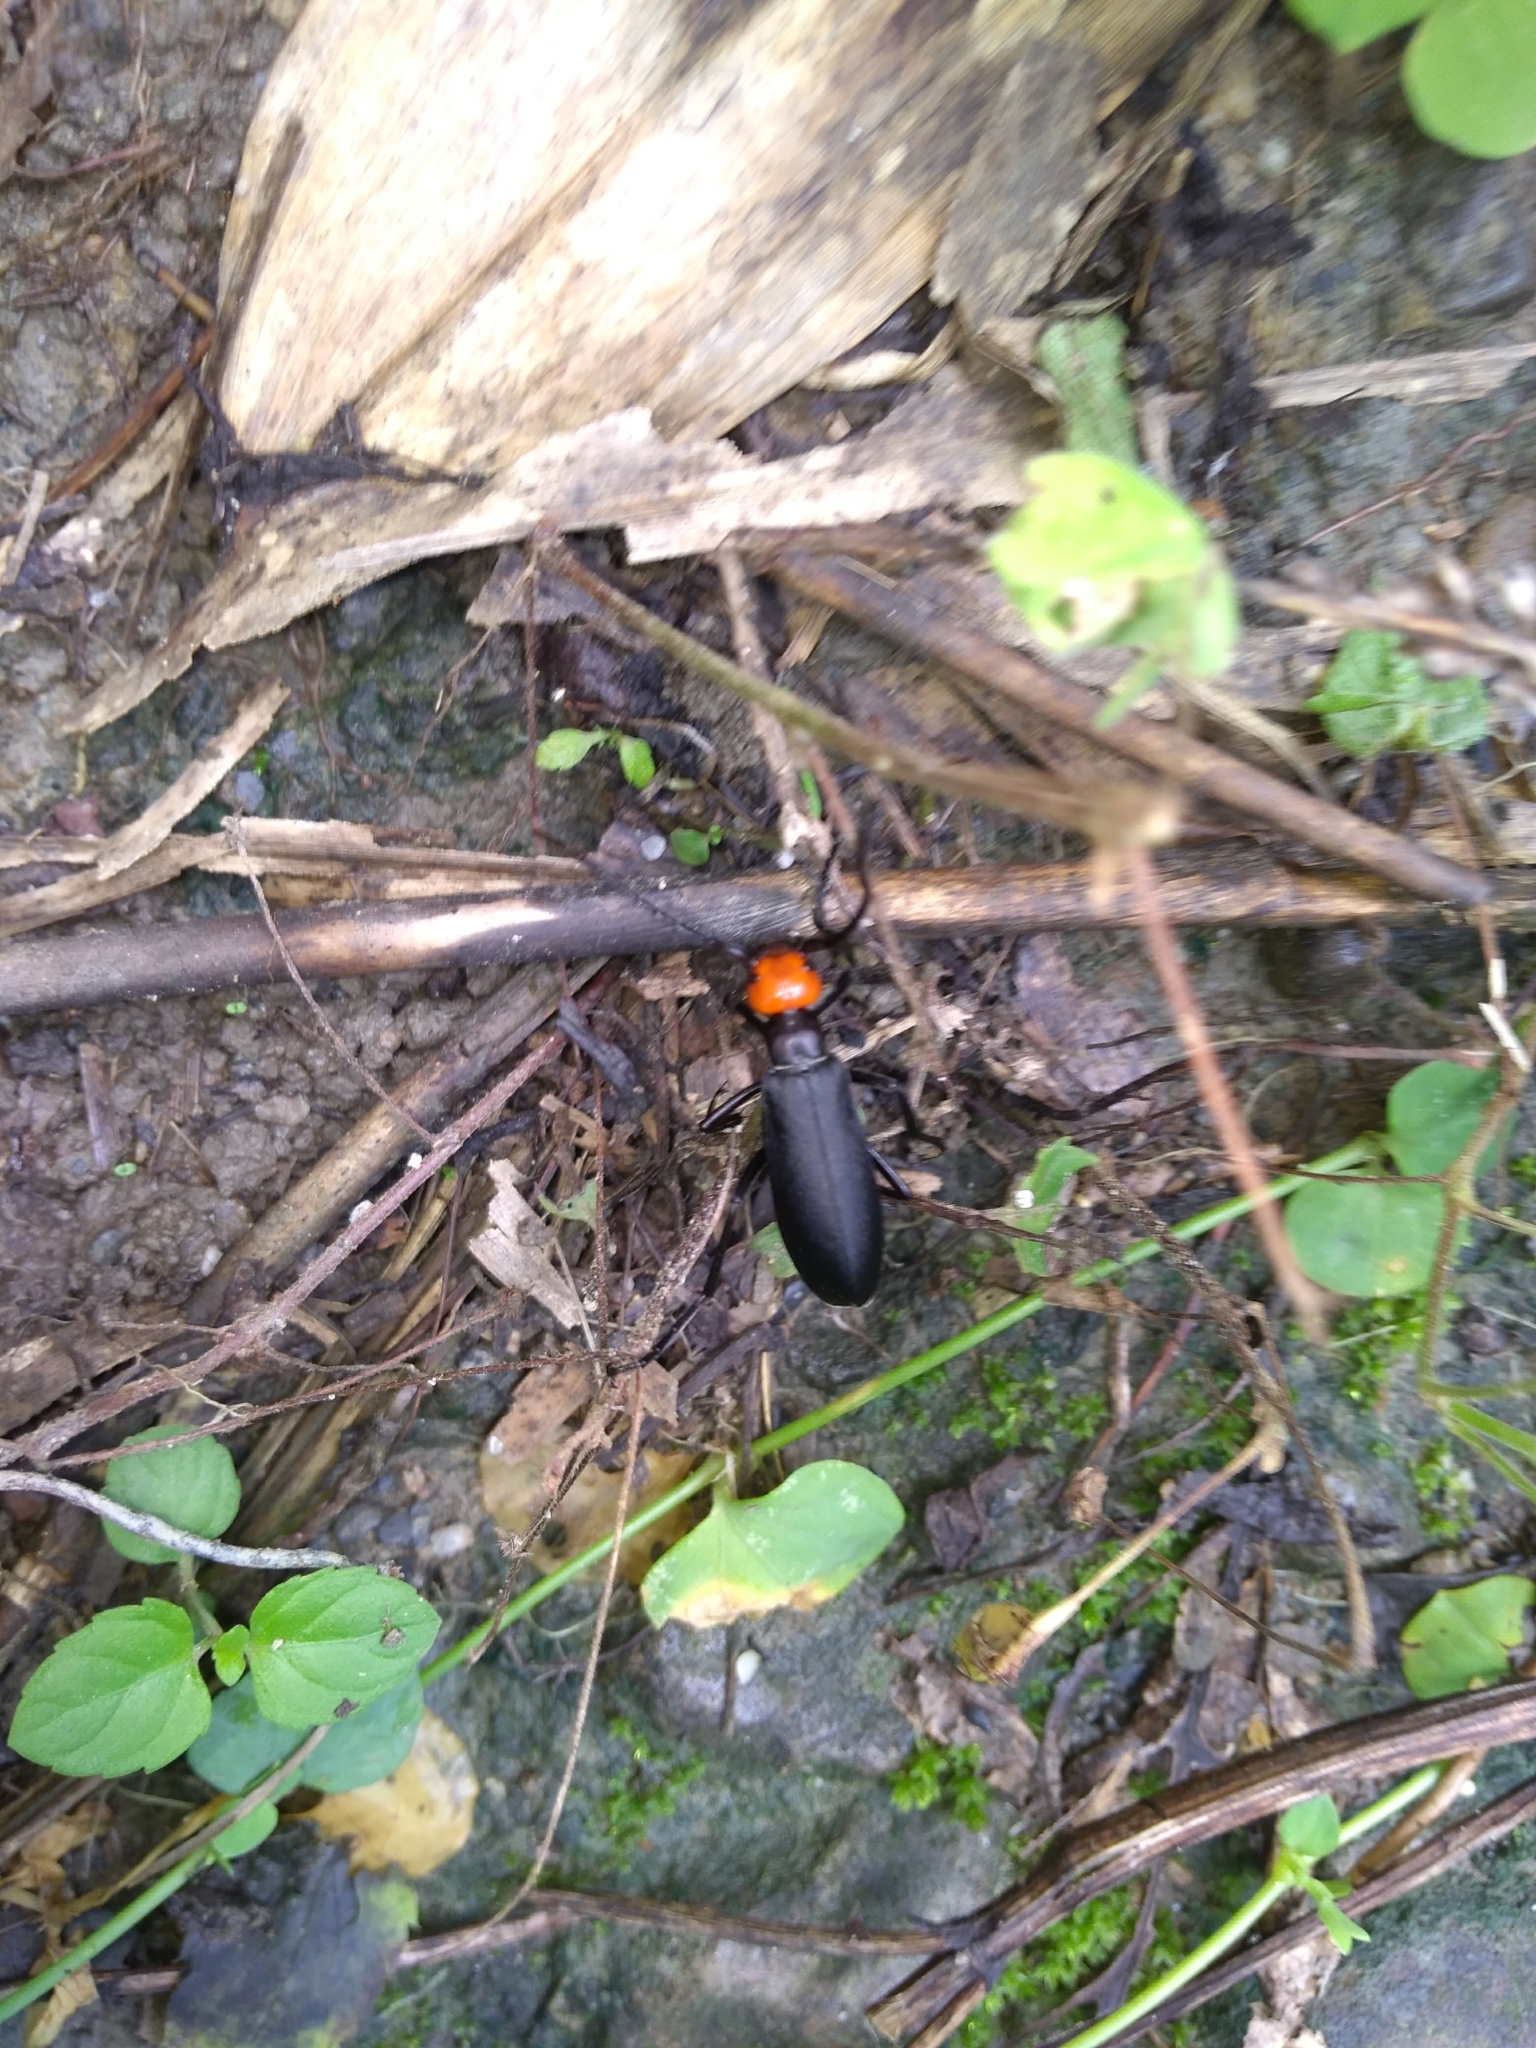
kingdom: Animalia
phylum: Arthropoda
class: Insecta
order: Coleoptera
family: Meloidae
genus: Epicauta
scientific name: Epicauta hirticornis
